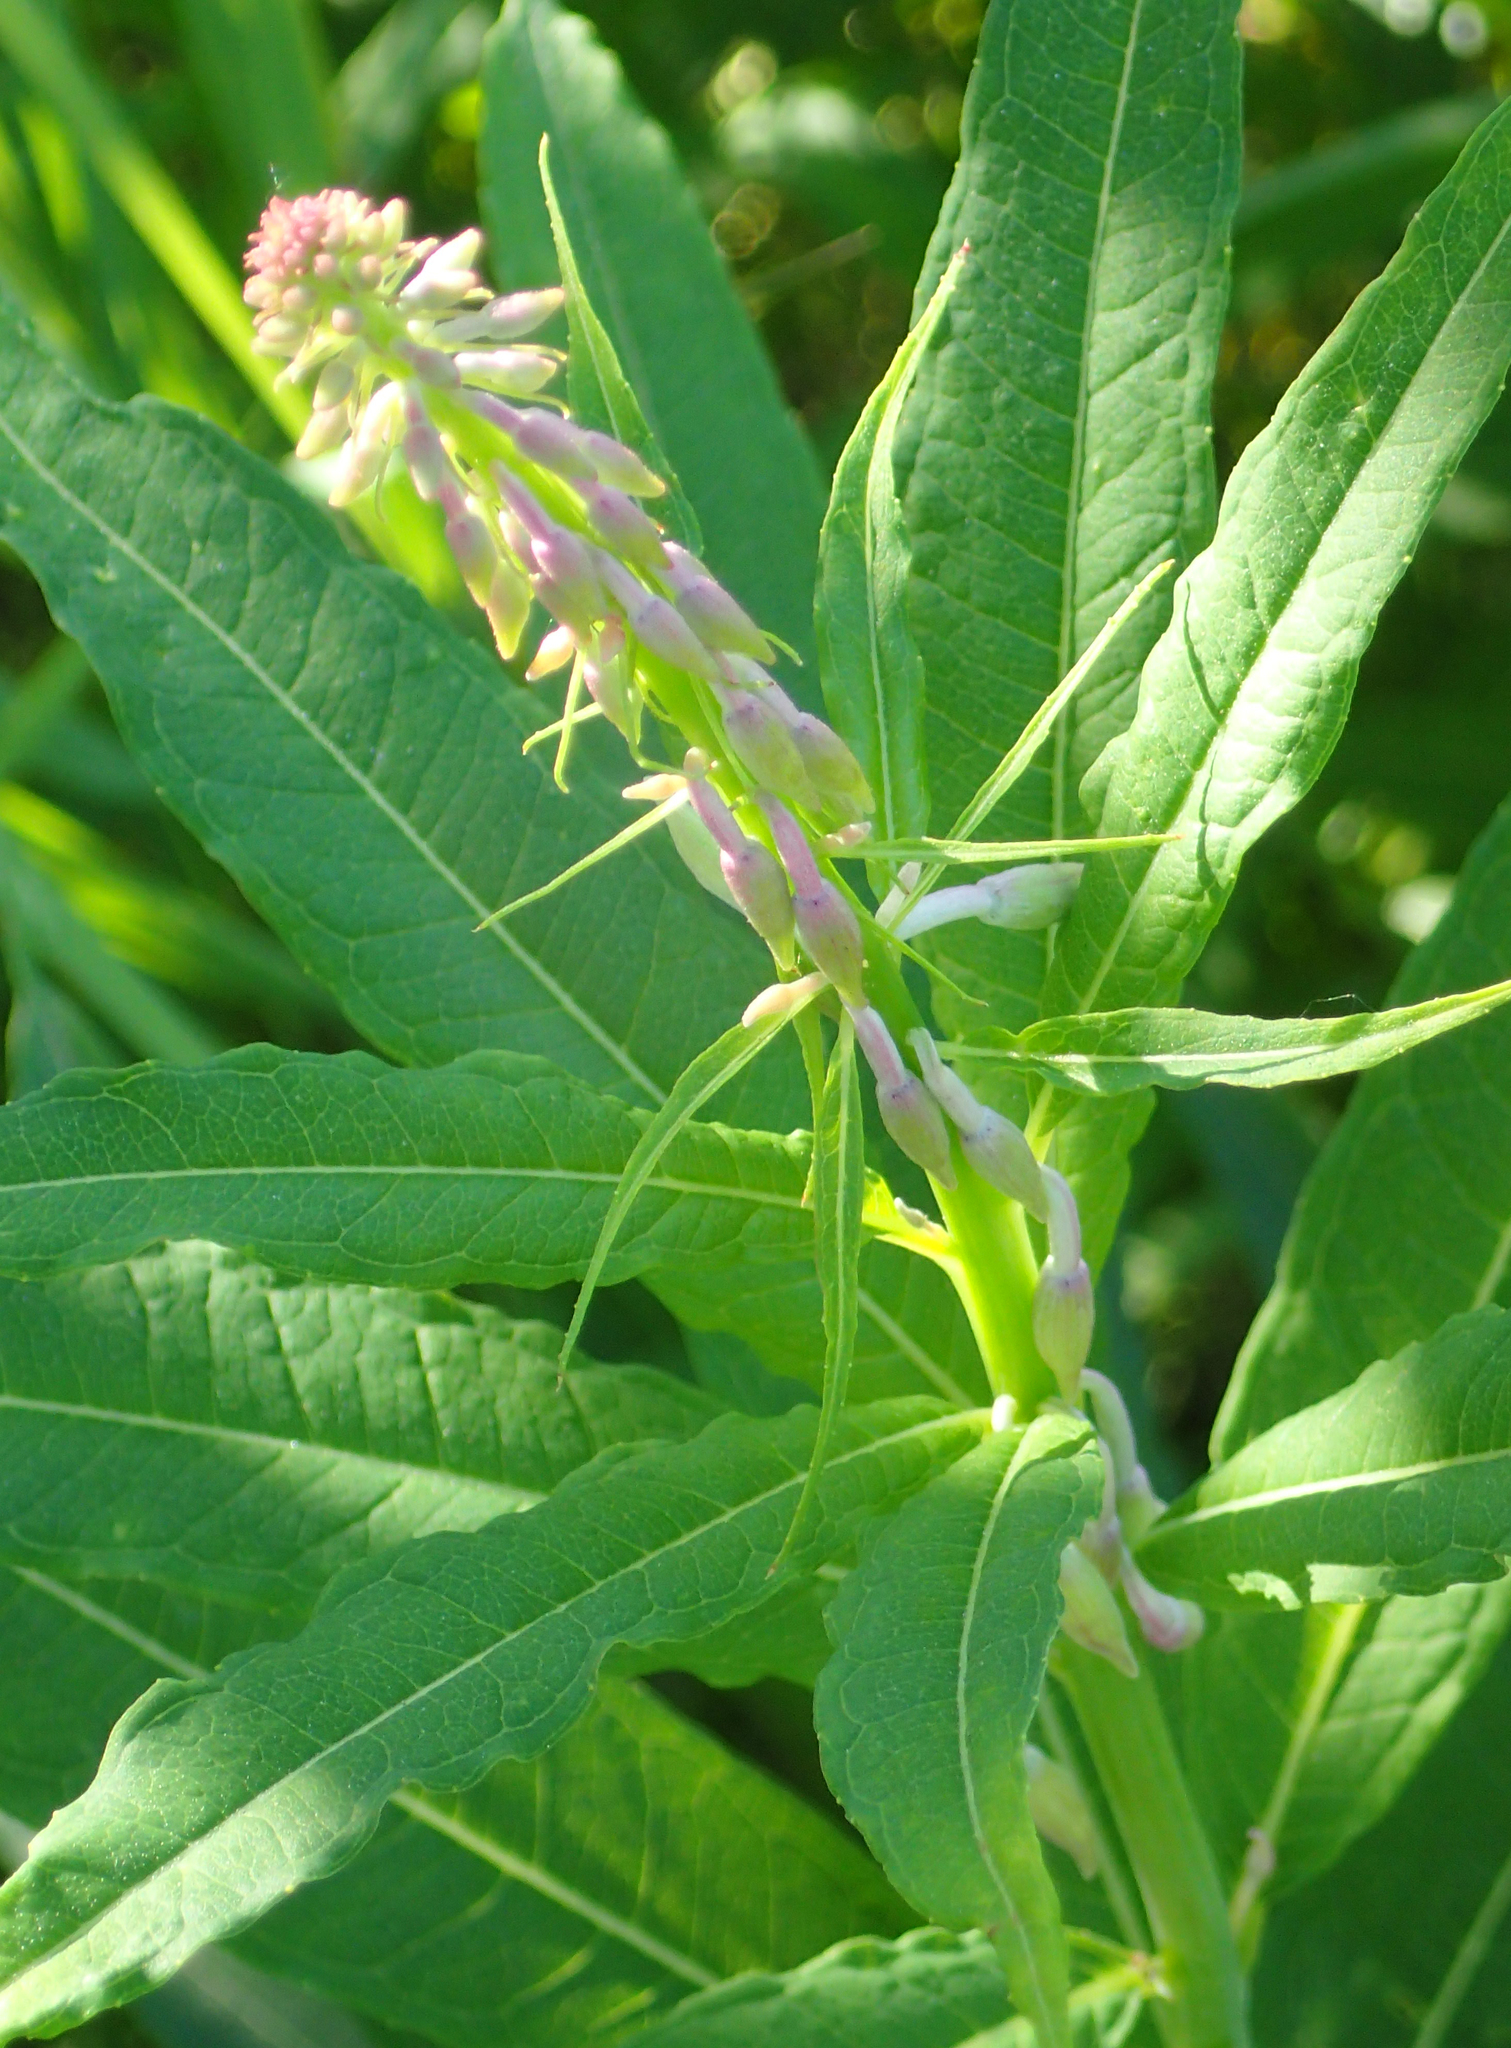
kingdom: Plantae
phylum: Tracheophyta
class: Magnoliopsida
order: Myrtales
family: Onagraceae
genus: Chamaenerion
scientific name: Chamaenerion angustifolium
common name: Fireweed
